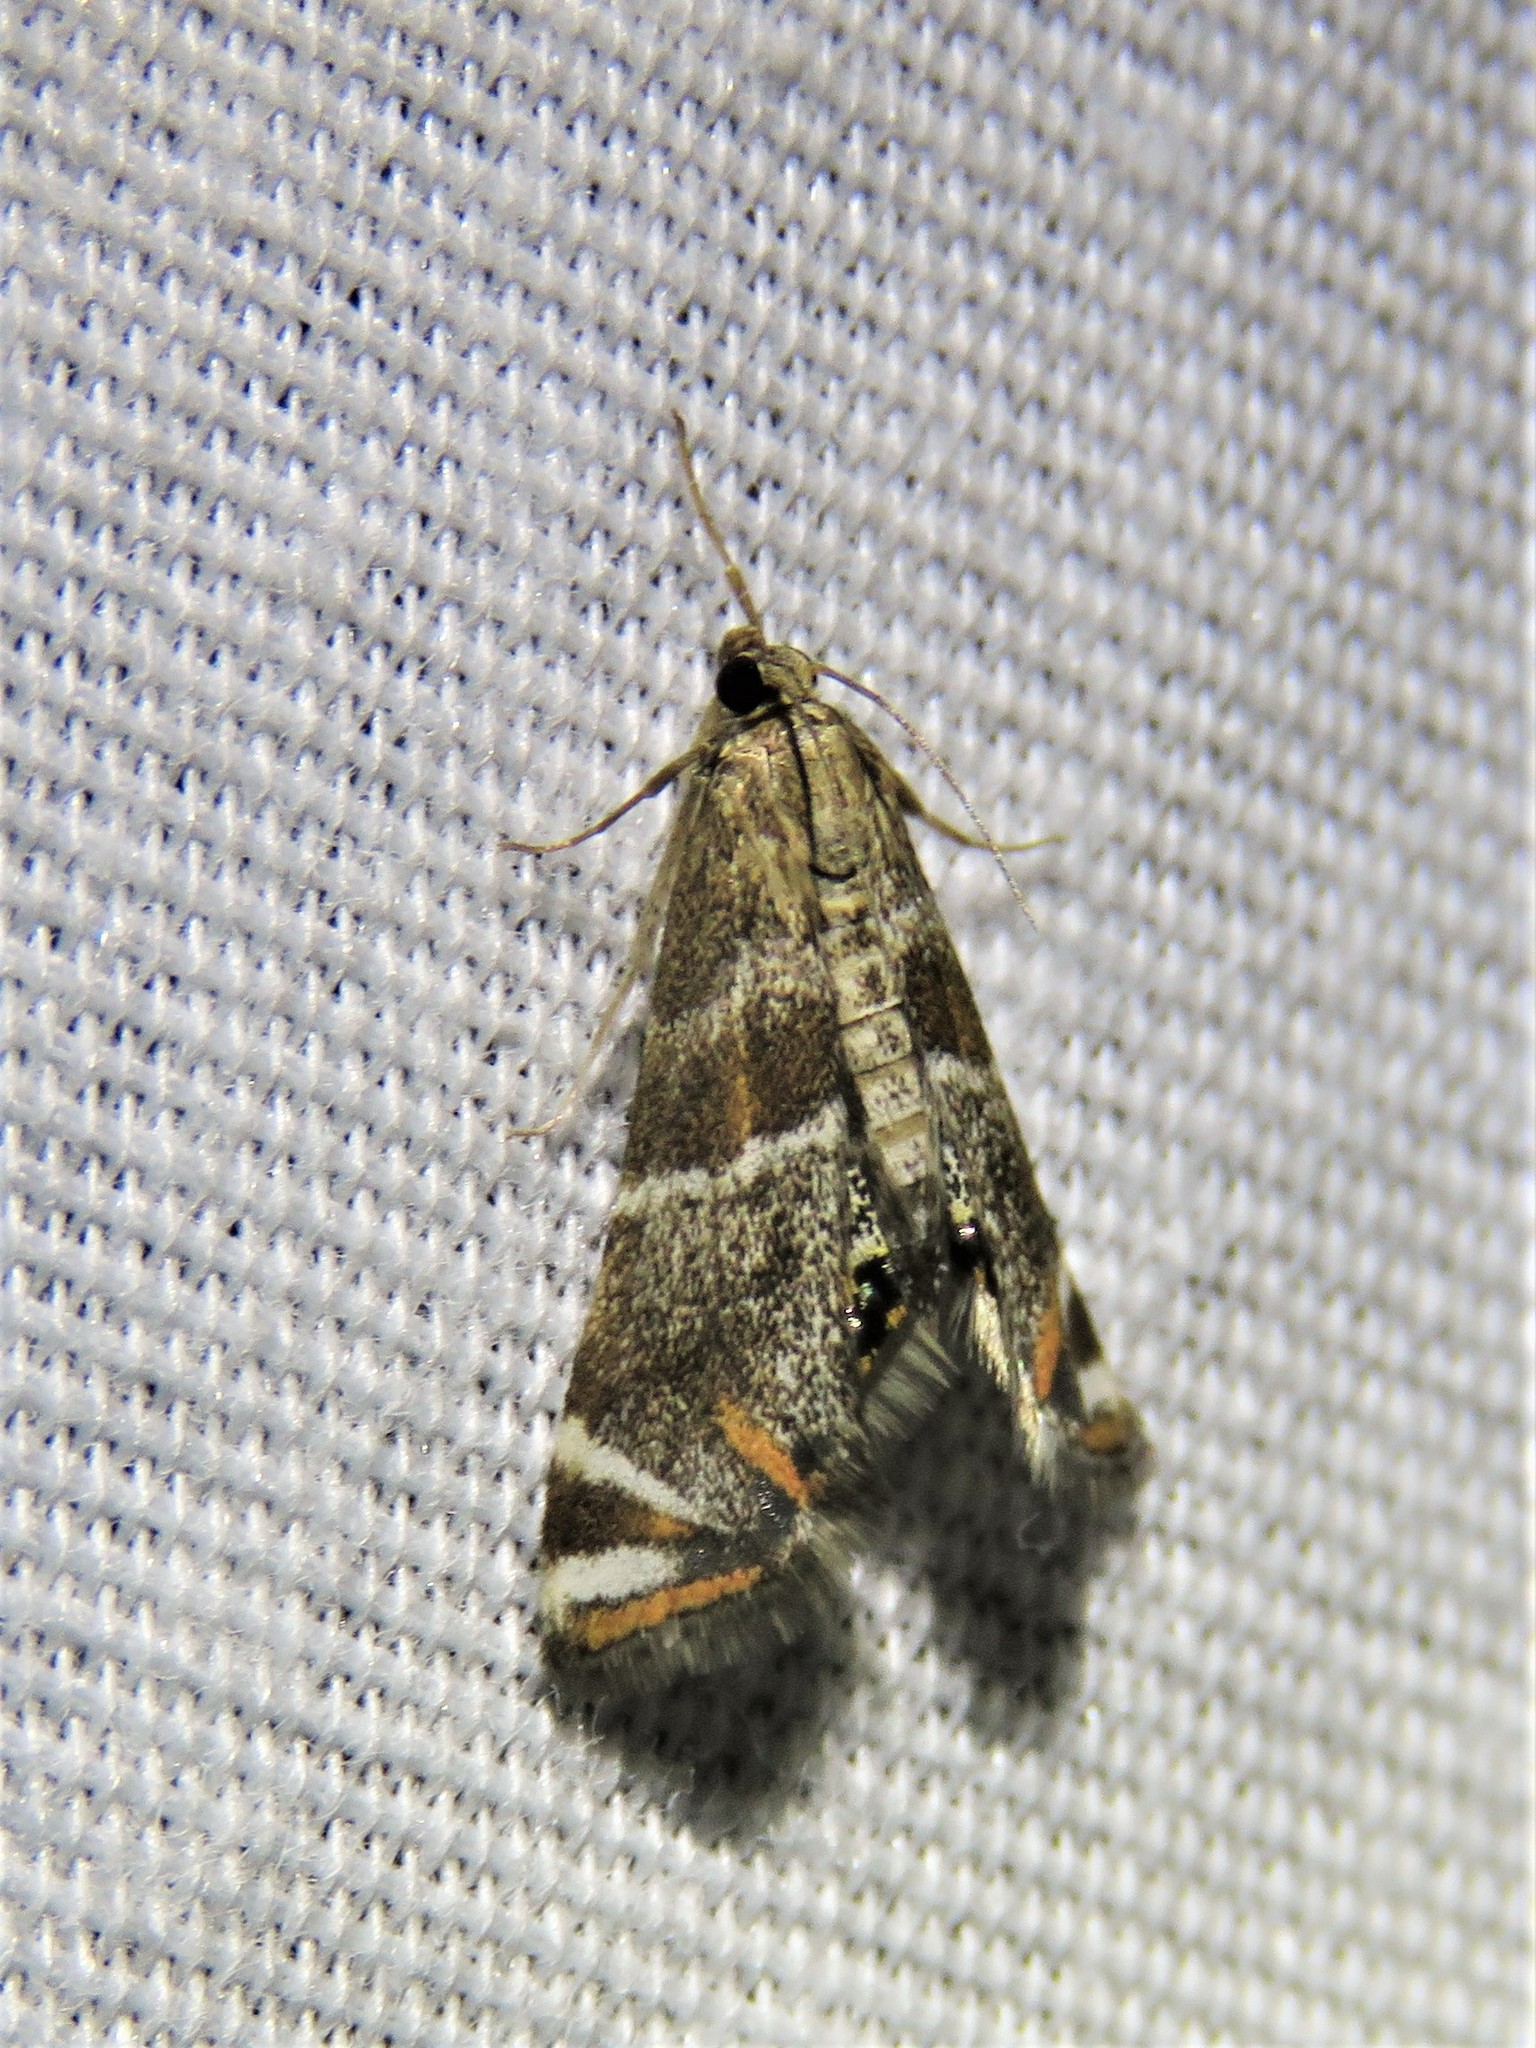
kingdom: Animalia
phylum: Arthropoda
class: Insecta
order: Lepidoptera
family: Crambidae
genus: Petrophila
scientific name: Petrophila jaliscalis
